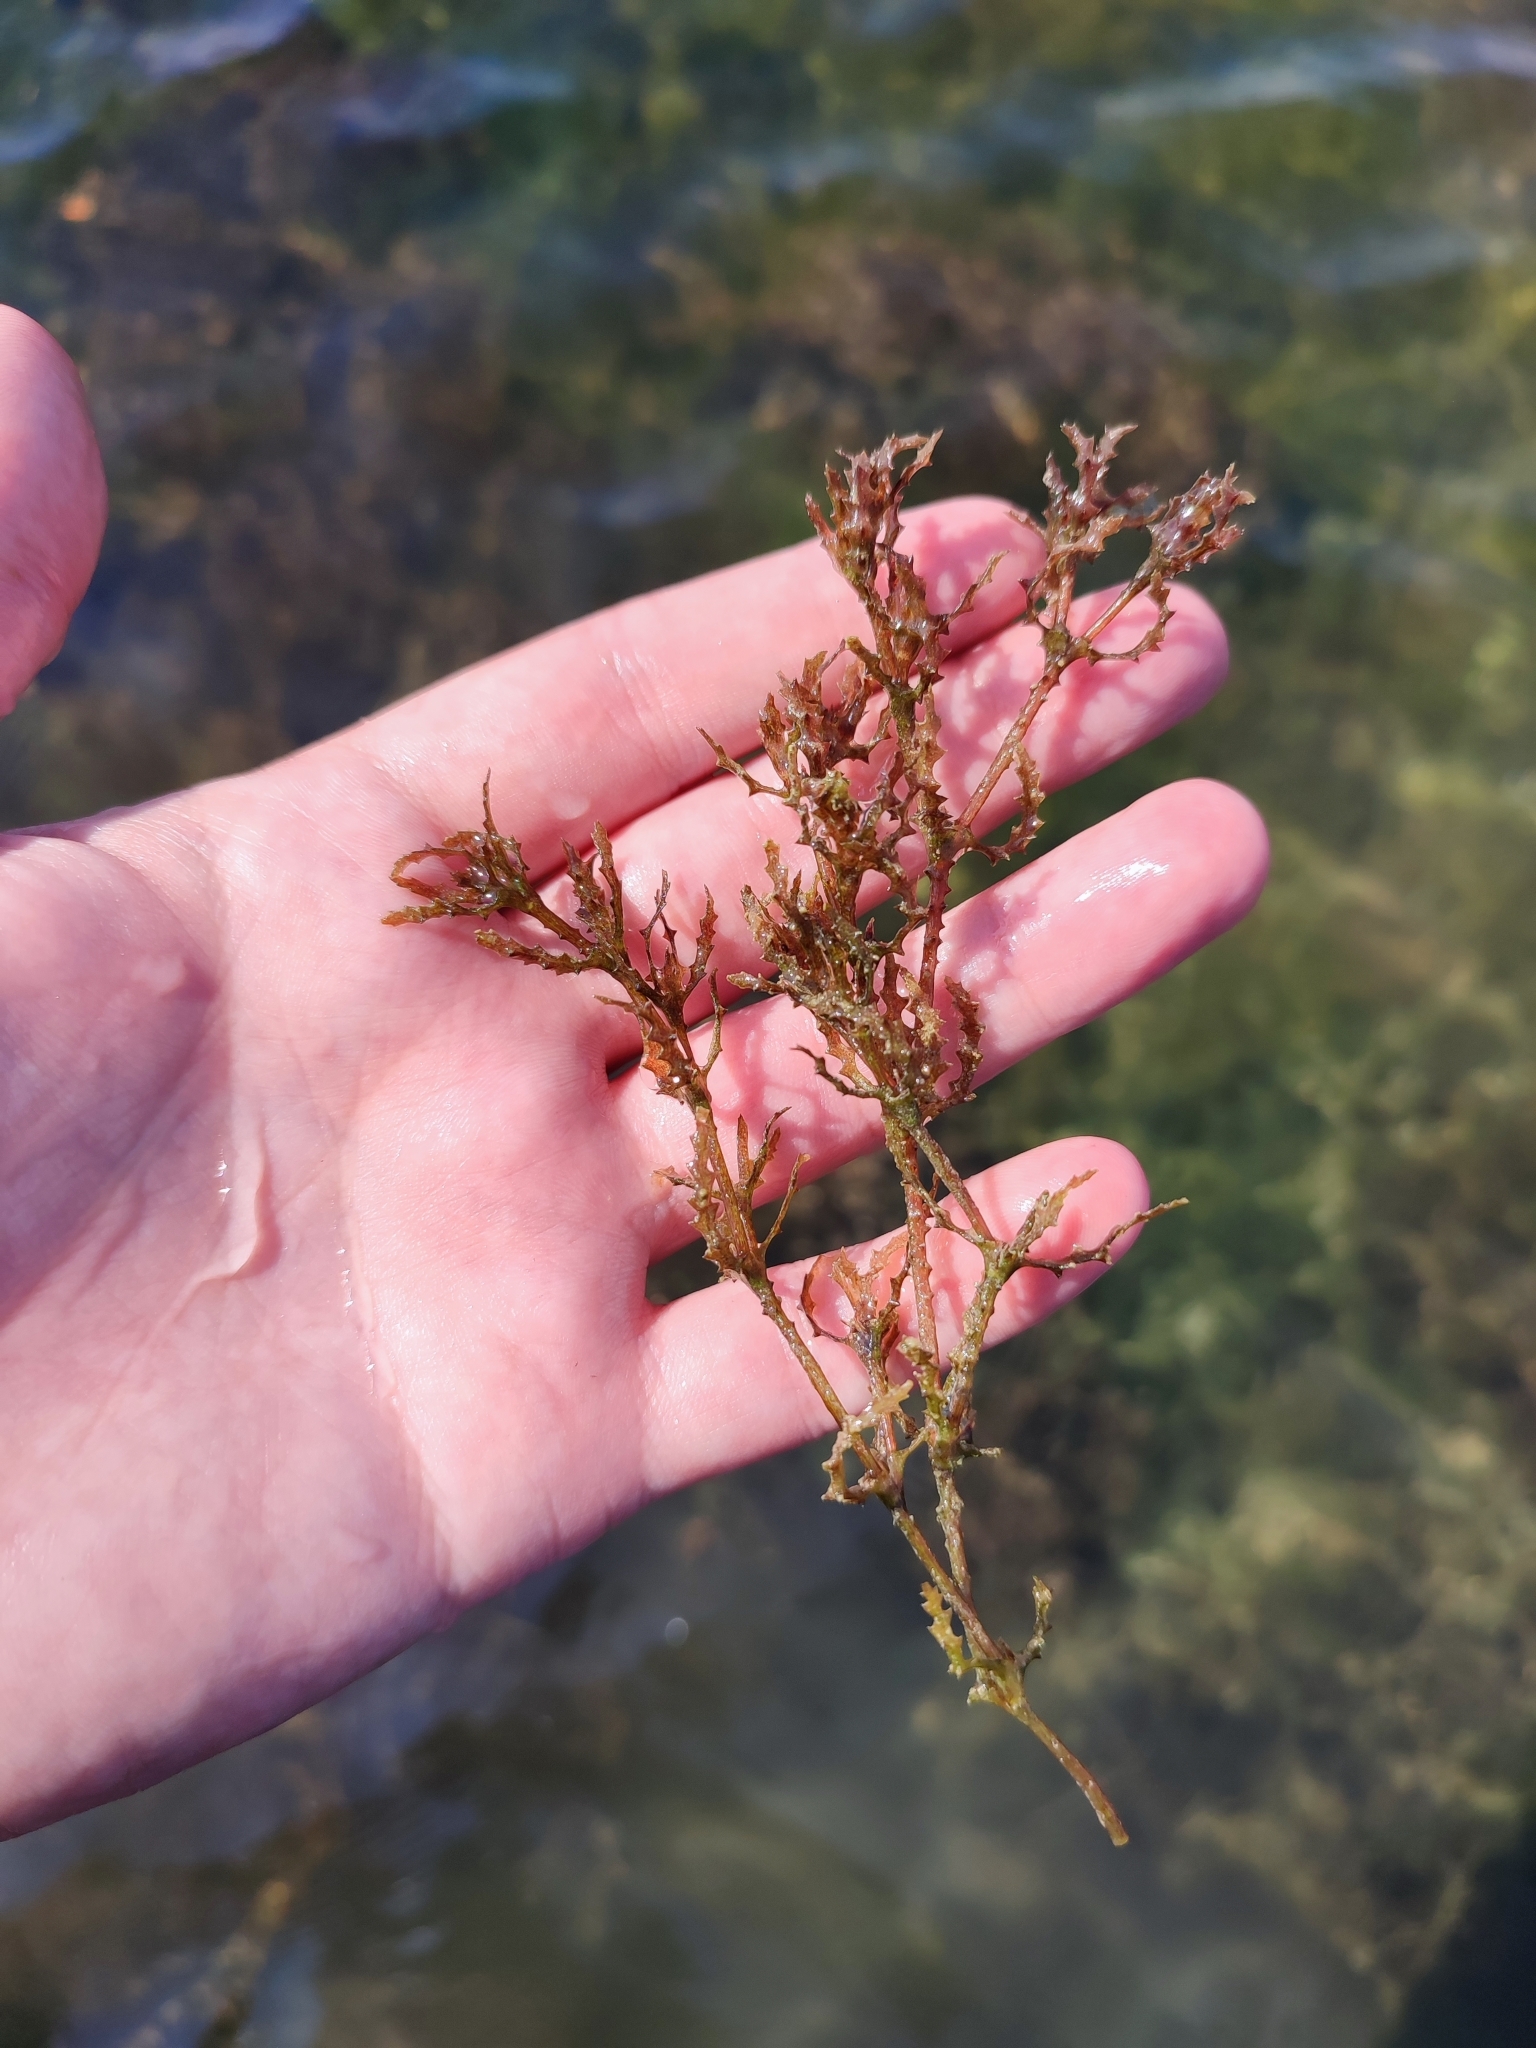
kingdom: Plantae
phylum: Tracheophyta
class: Liliopsida
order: Alismatales
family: Hydrocharitaceae
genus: Najas
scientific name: Najas marina
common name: Holly-leaved naiad
